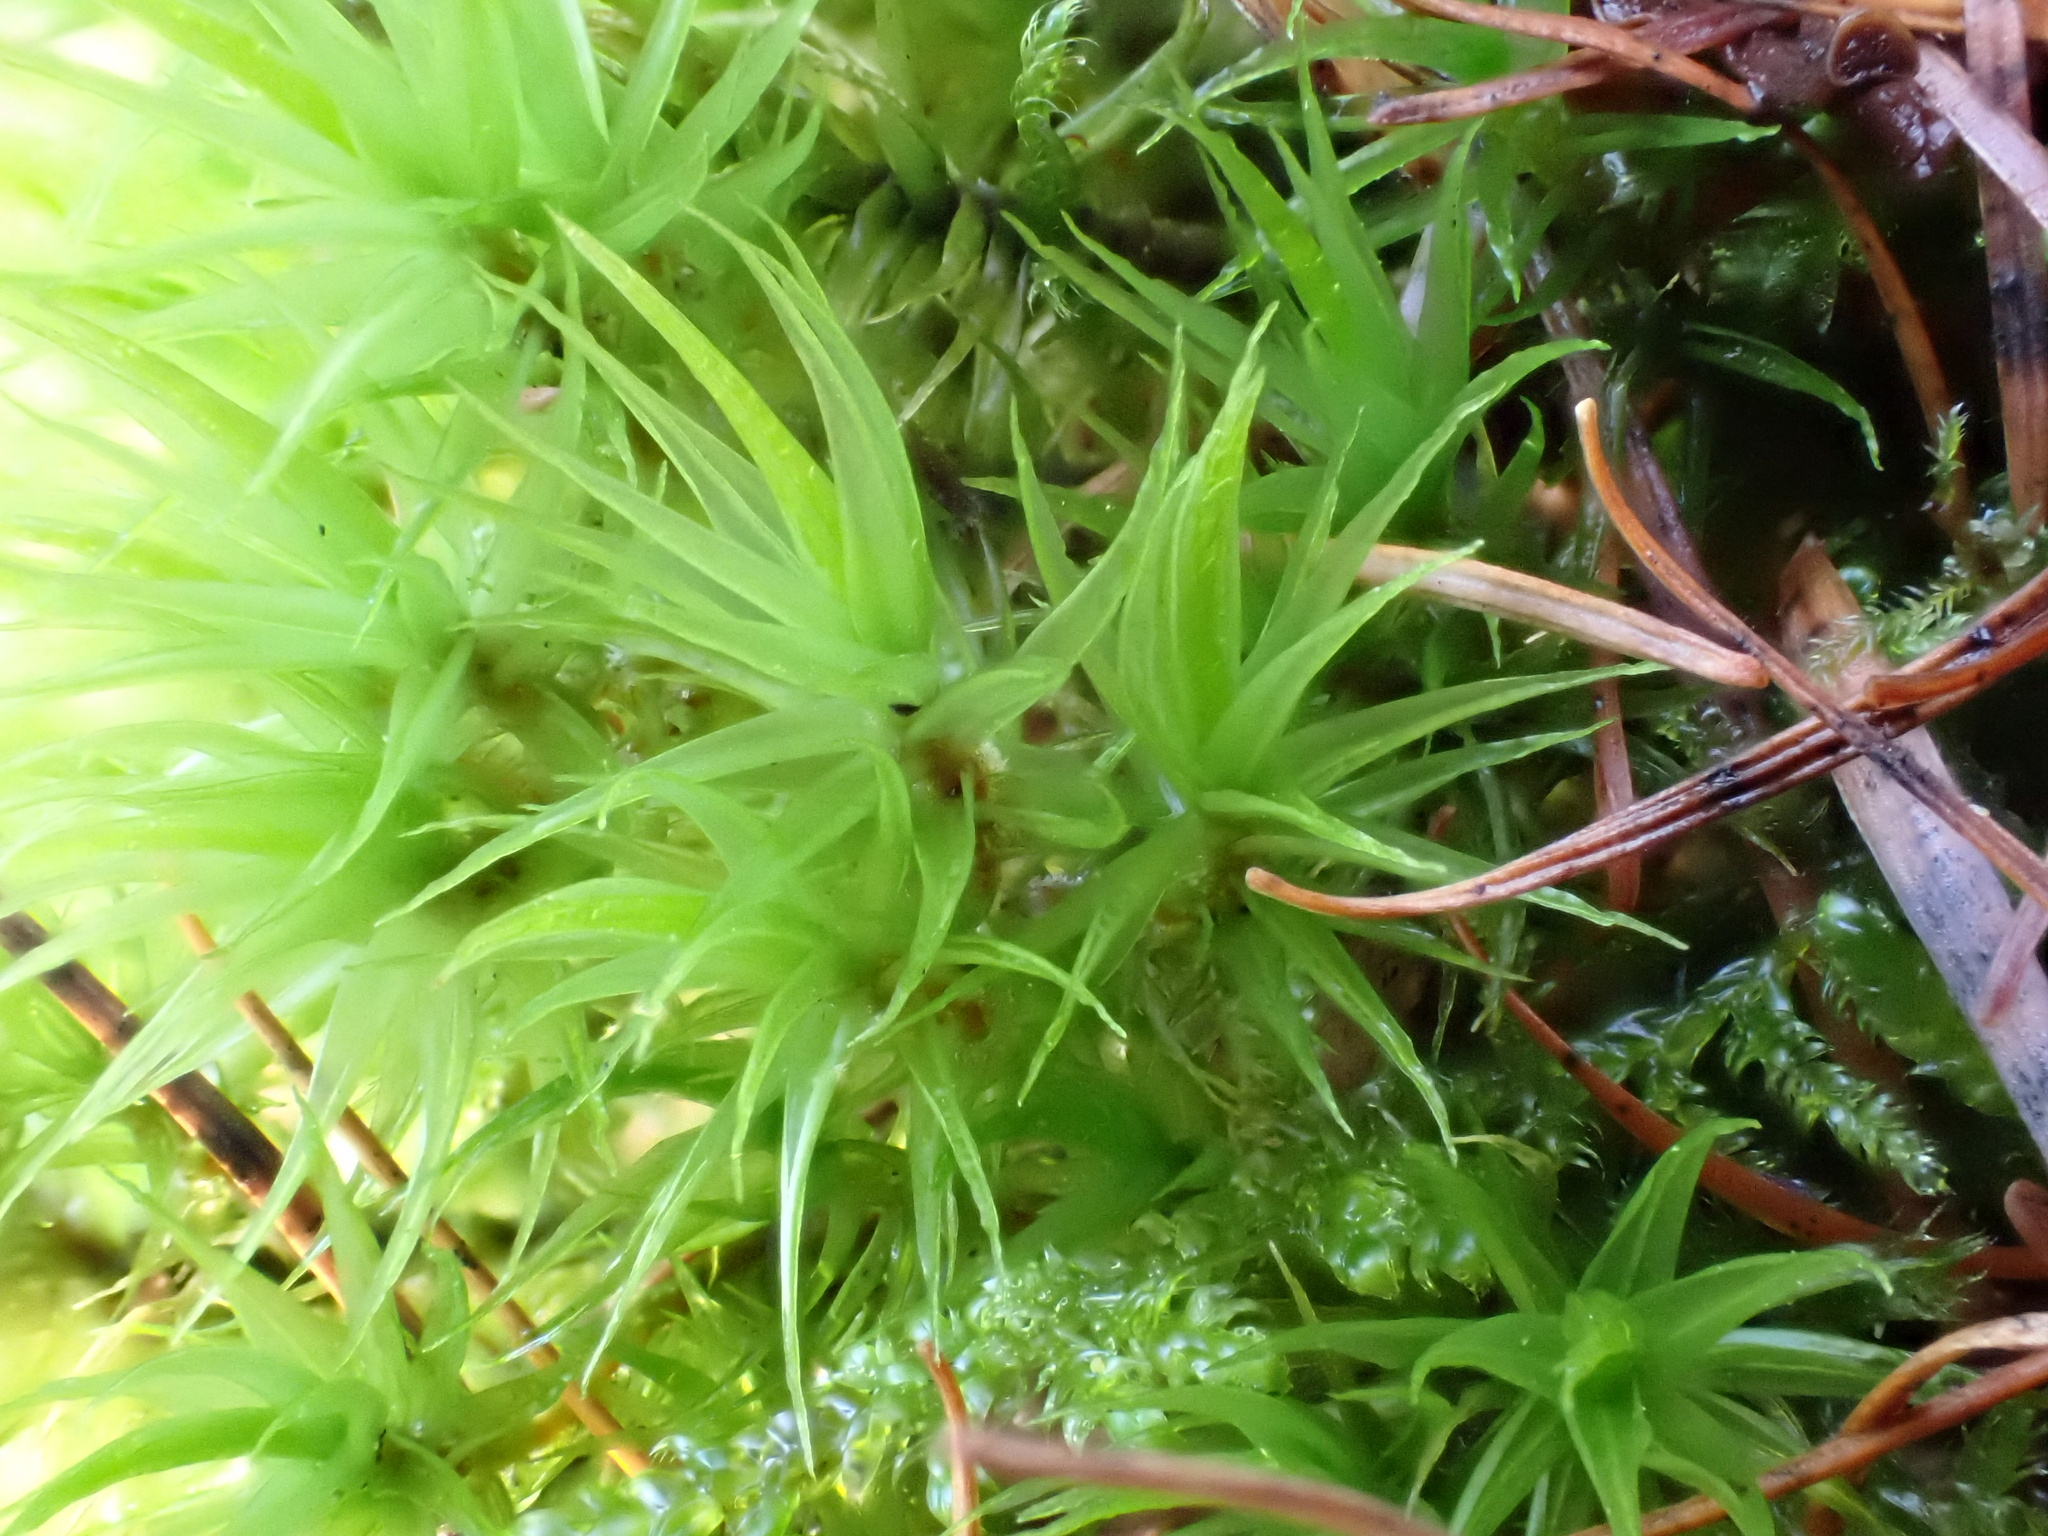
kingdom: Plantae
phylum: Bryophyta
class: Bryopsida
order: Dicranales
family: Dicranaceae
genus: Dicranum
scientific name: Dicranum scoparium
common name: Broom fork-moss
